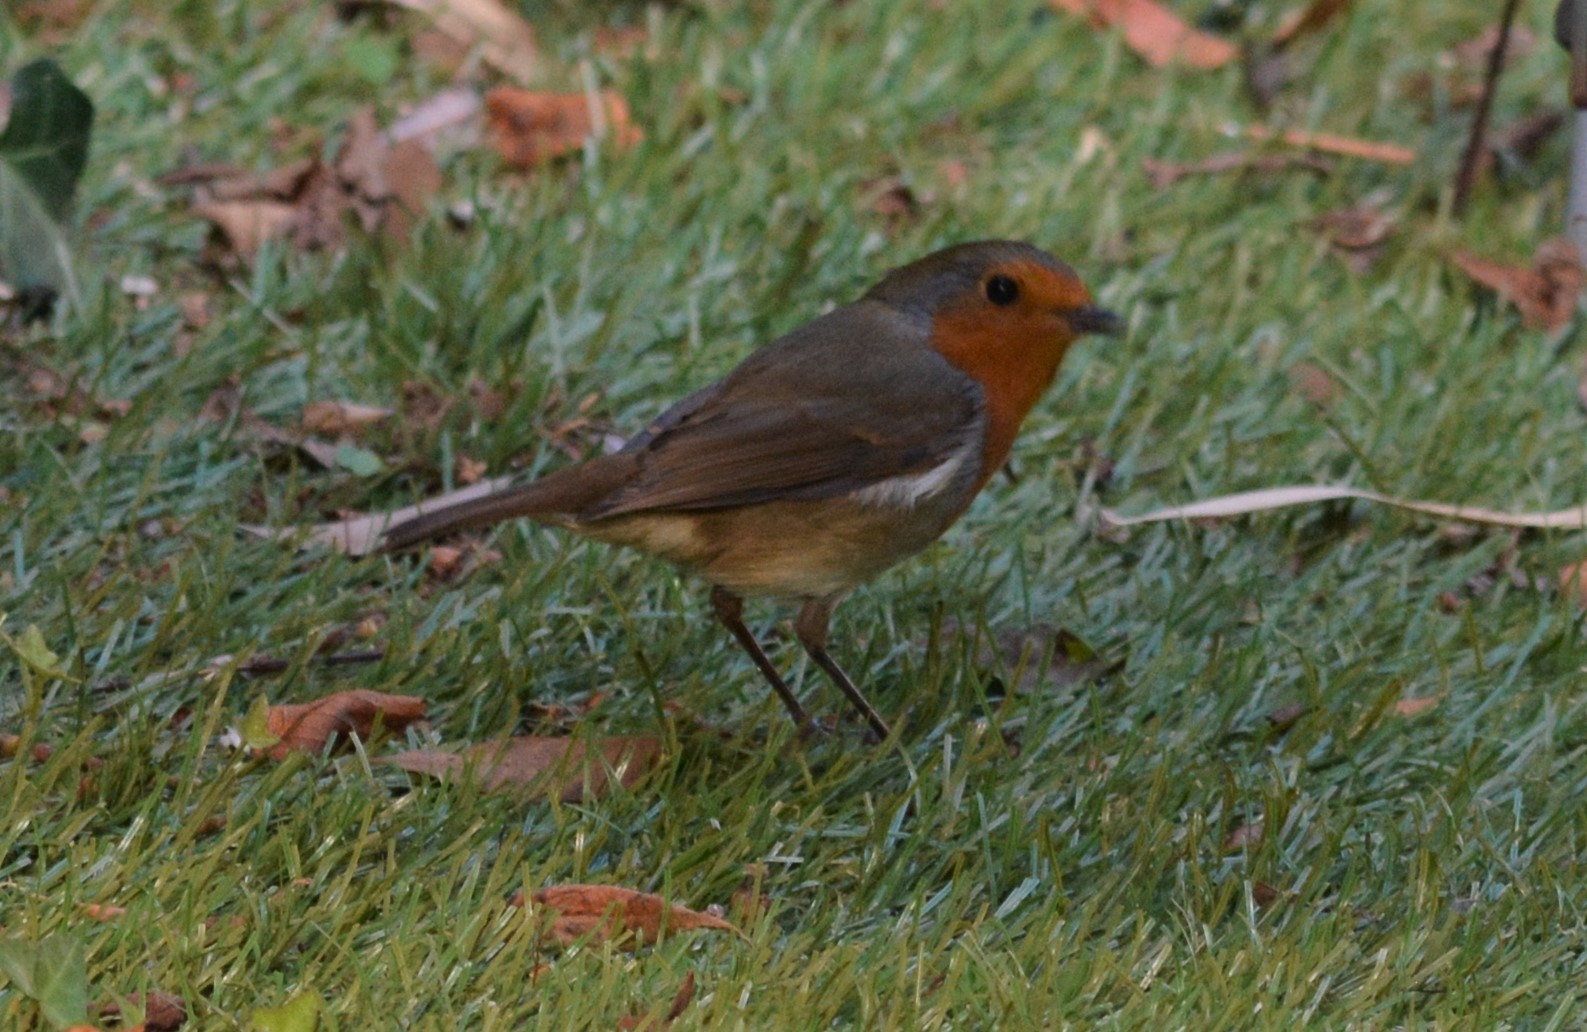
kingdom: Animalia
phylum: Chordata
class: Aves
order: Passeriformes
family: Muscicapidae
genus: Erithacus
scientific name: Erithacus rubecula
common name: European robin
